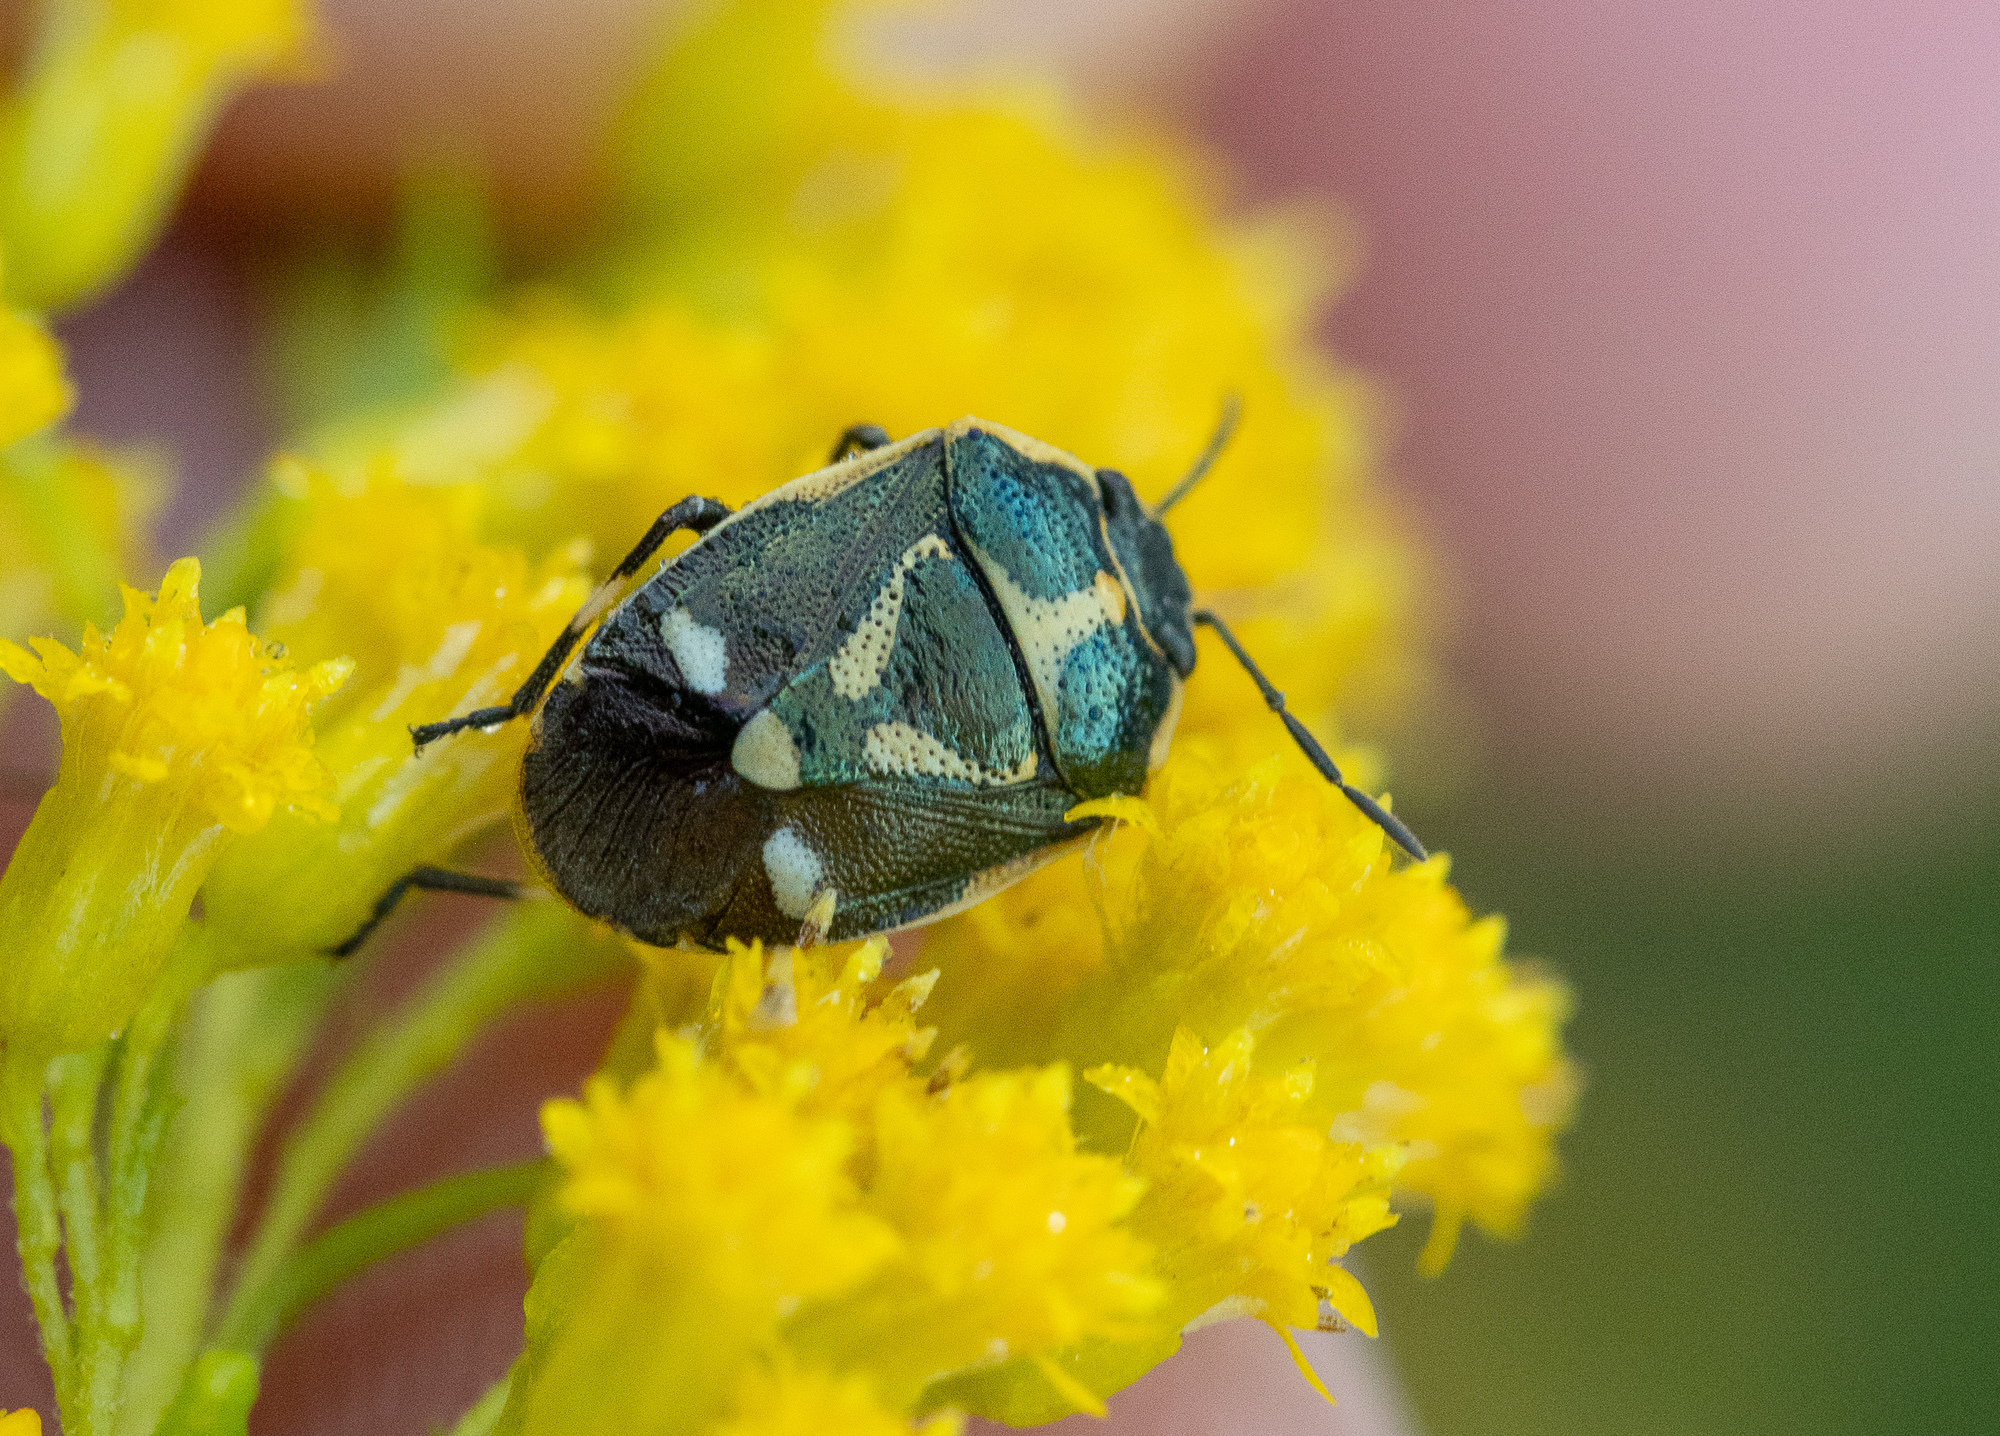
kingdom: Animalia
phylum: Arthropoda
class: Insecta
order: Hemiptera
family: Pentatomidae
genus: Eurydema
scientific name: Eurydema oleracea
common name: Cabbage bug
